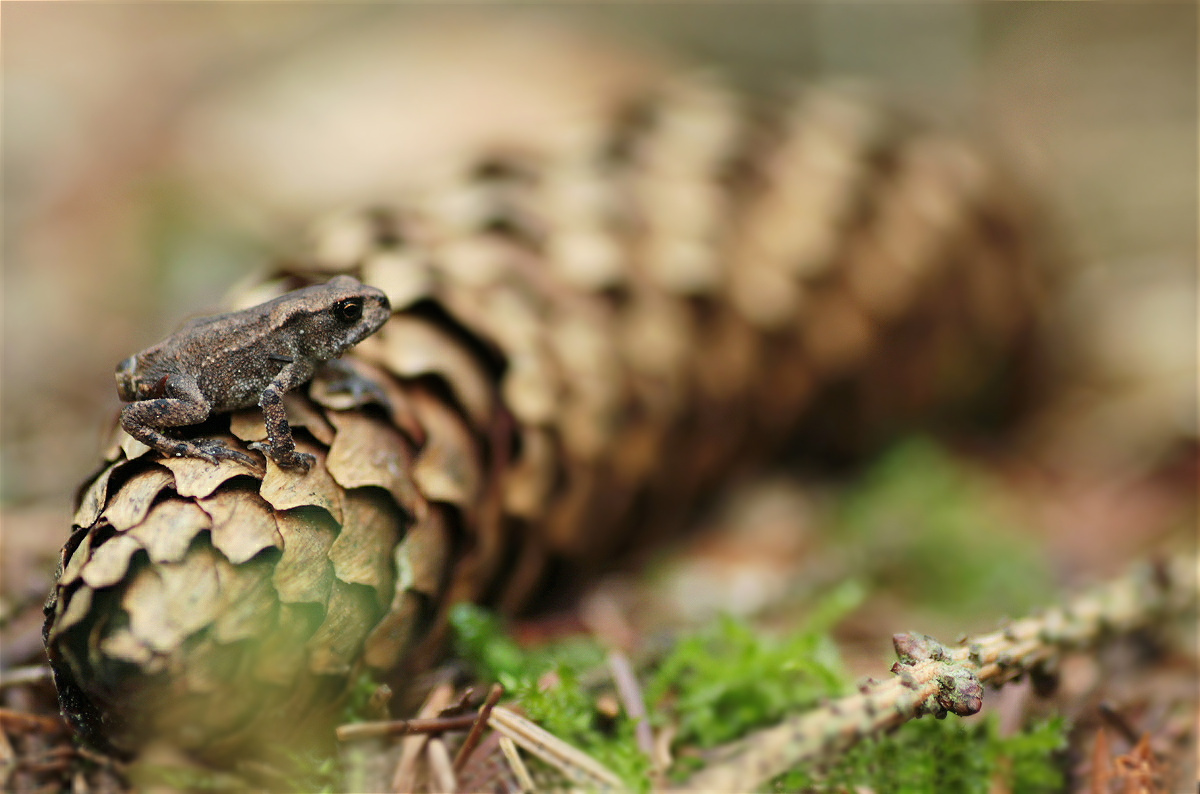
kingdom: Animalia
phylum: Chordata
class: Amphibia
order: Anura
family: Bufonidae
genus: Bufo
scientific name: Bufo bufo
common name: Common toad
